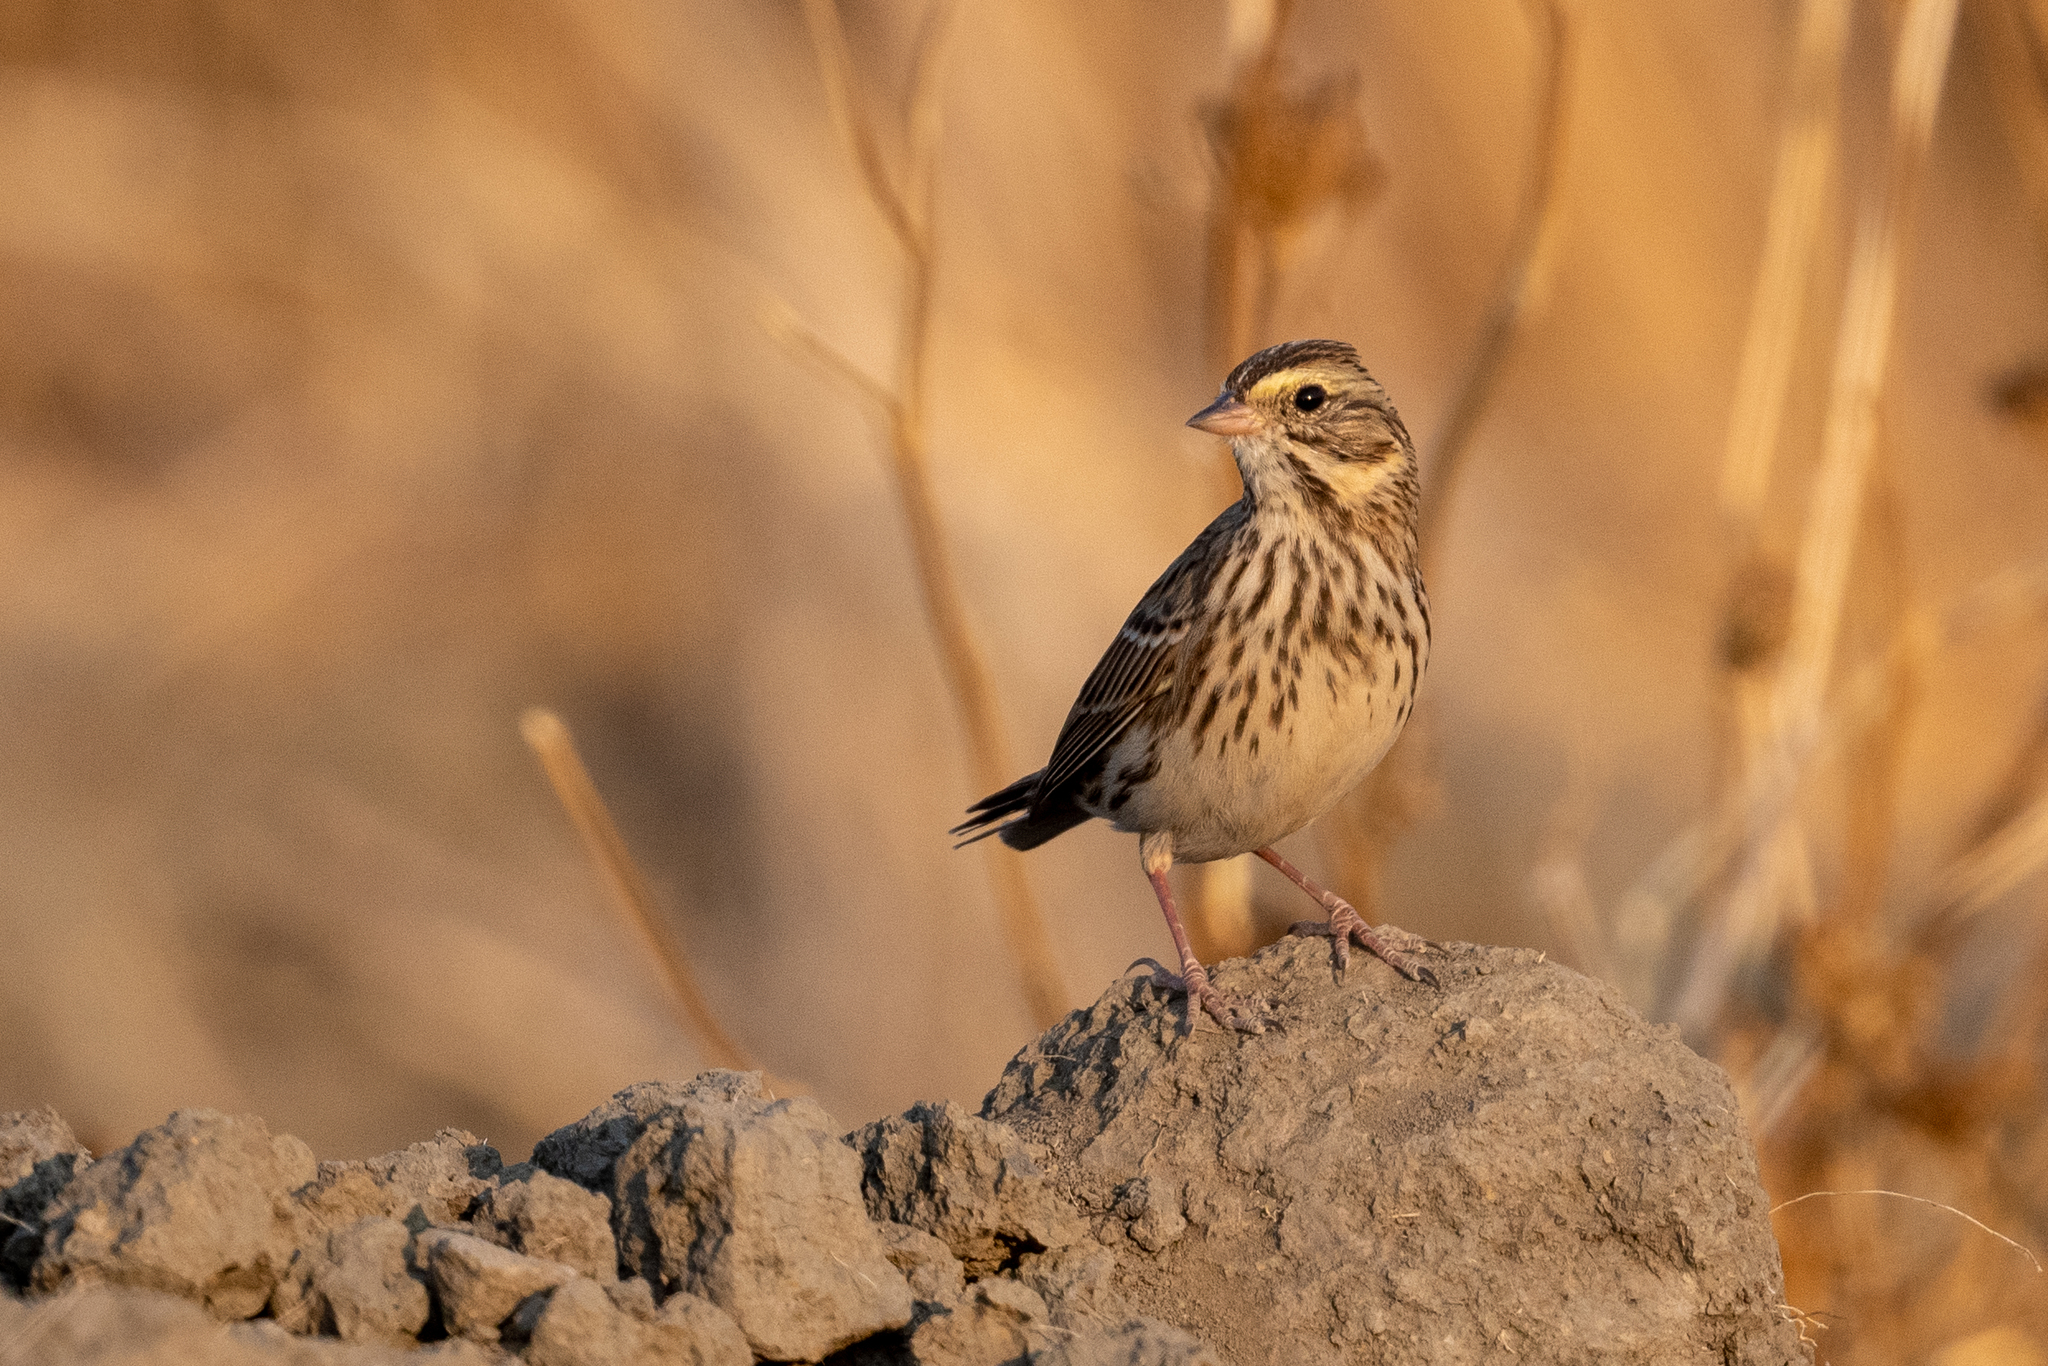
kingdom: Animalia
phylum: Chordata
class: Aves
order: Passeriformes
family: Passerellidae
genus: Passerculus
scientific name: Passerculus sandwichensis
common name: Savannah sparrow
